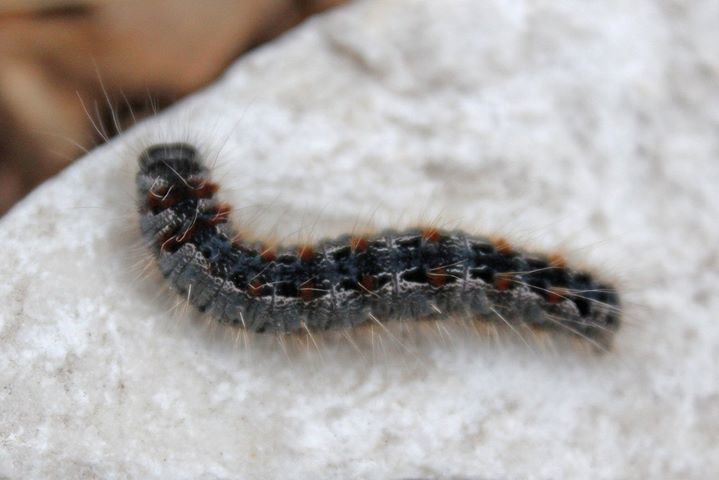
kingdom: Animalia
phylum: Arthropoda
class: Insecta
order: Lepidoptera
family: Erebidae
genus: Lymantria
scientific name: Lymantria dispar
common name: Gypsy moth
